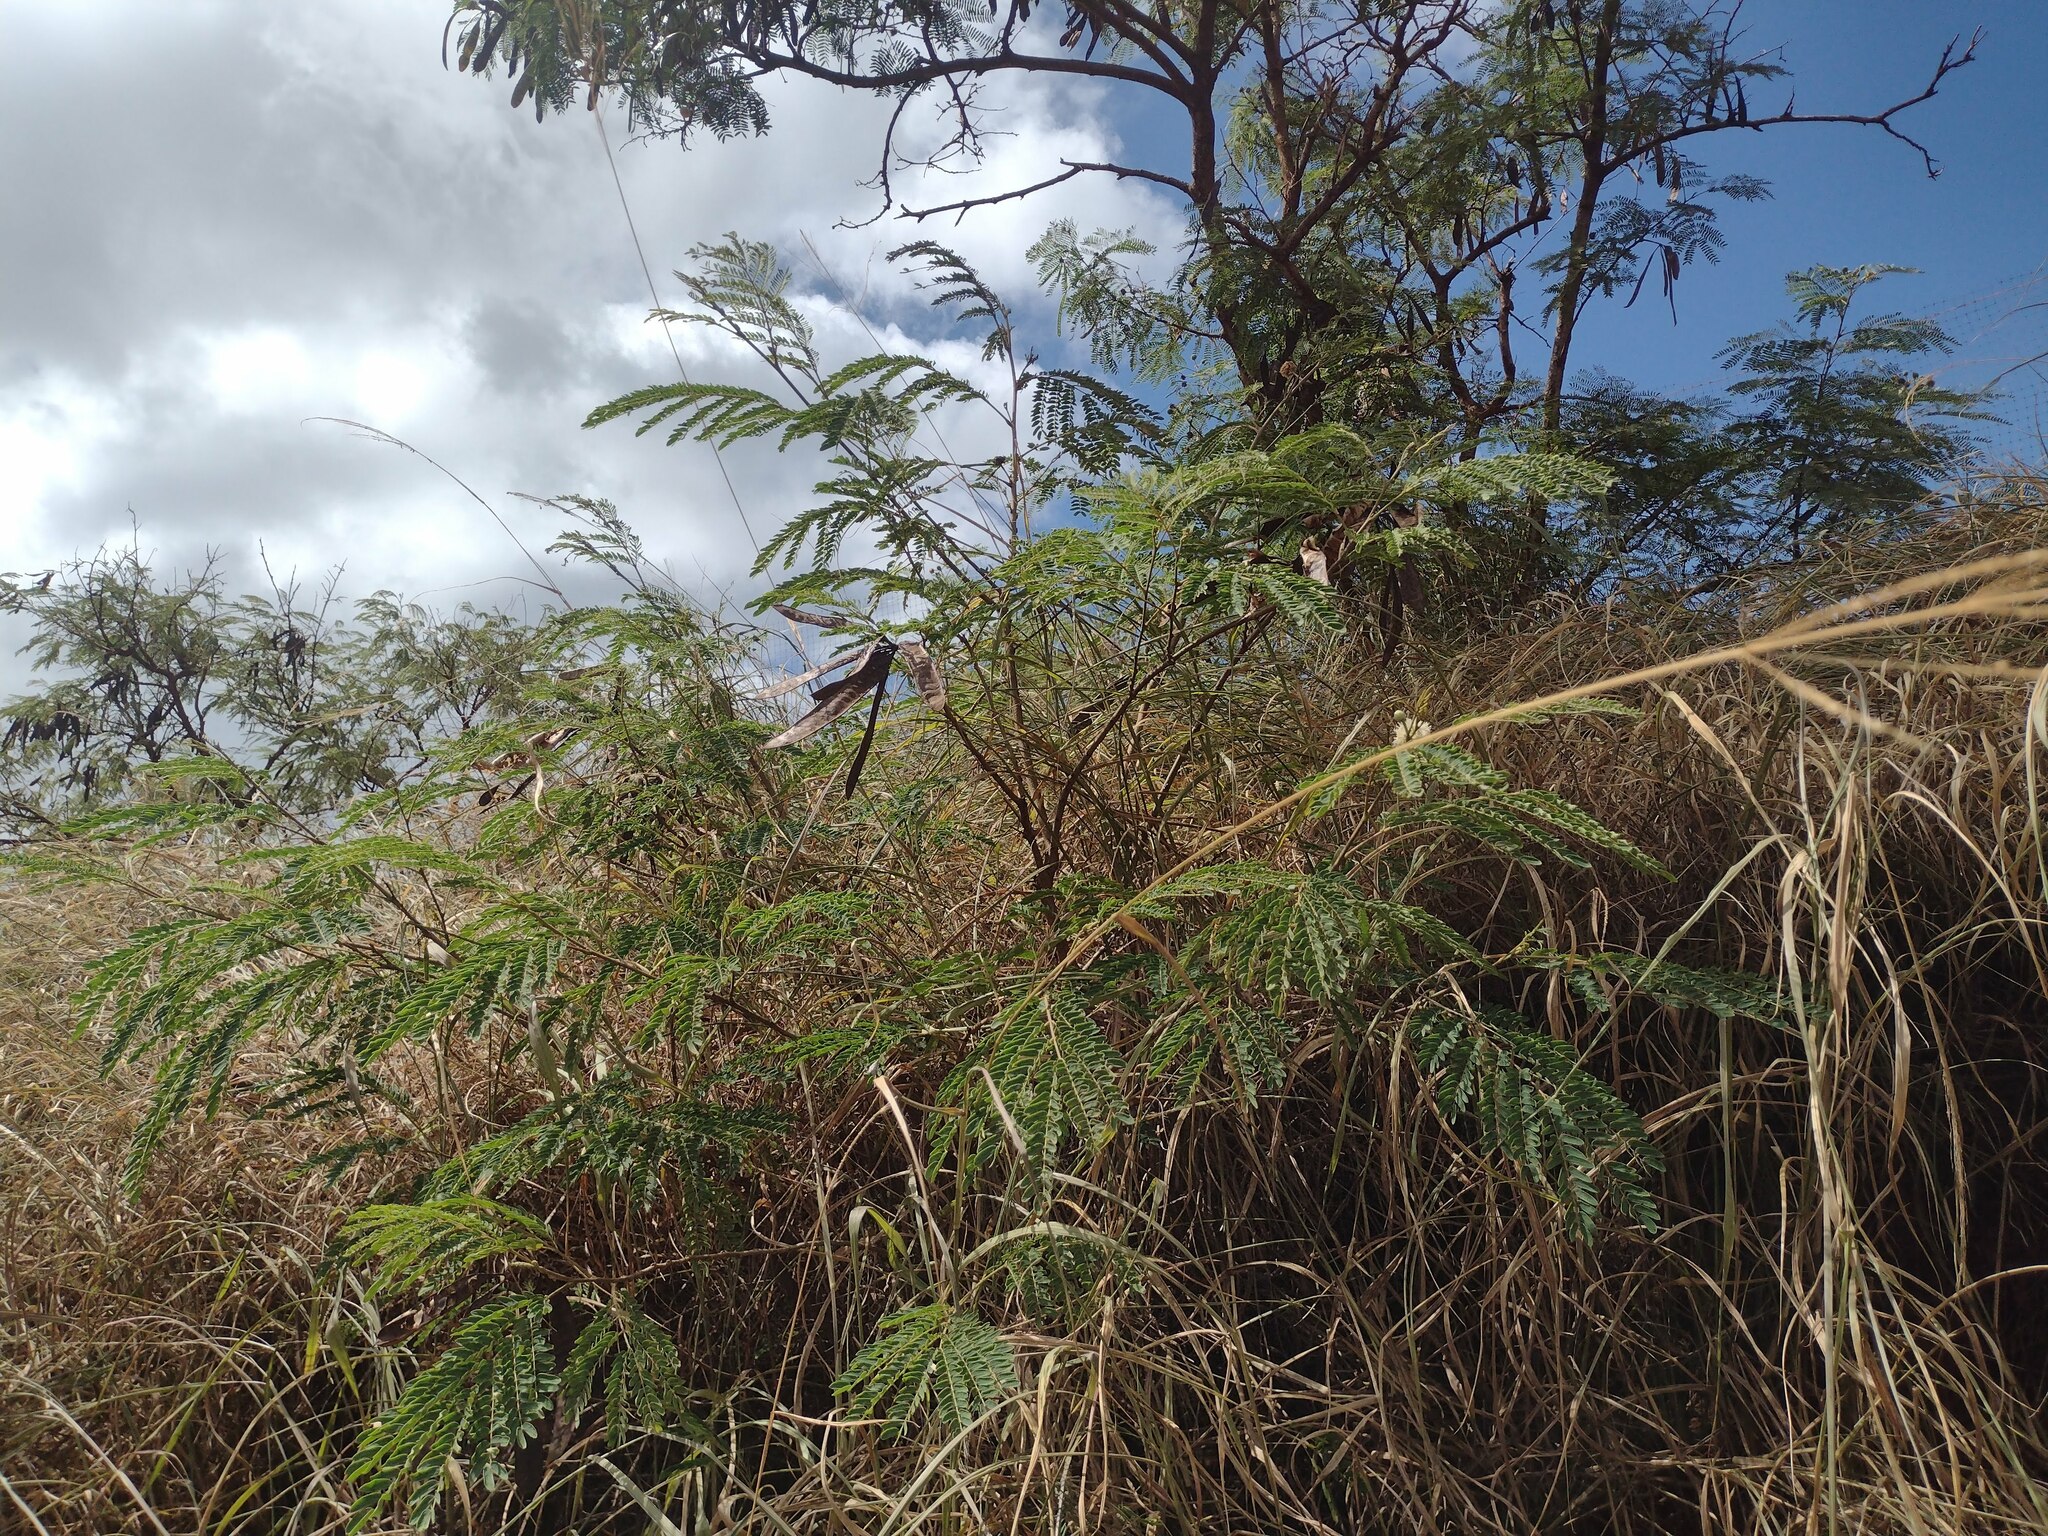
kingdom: Plantae
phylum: Tracheophyta
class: Magnoliopsida
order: Fabales
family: Fabaceae
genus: Leucaena
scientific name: Leucaena leucocephala
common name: White leadtree
